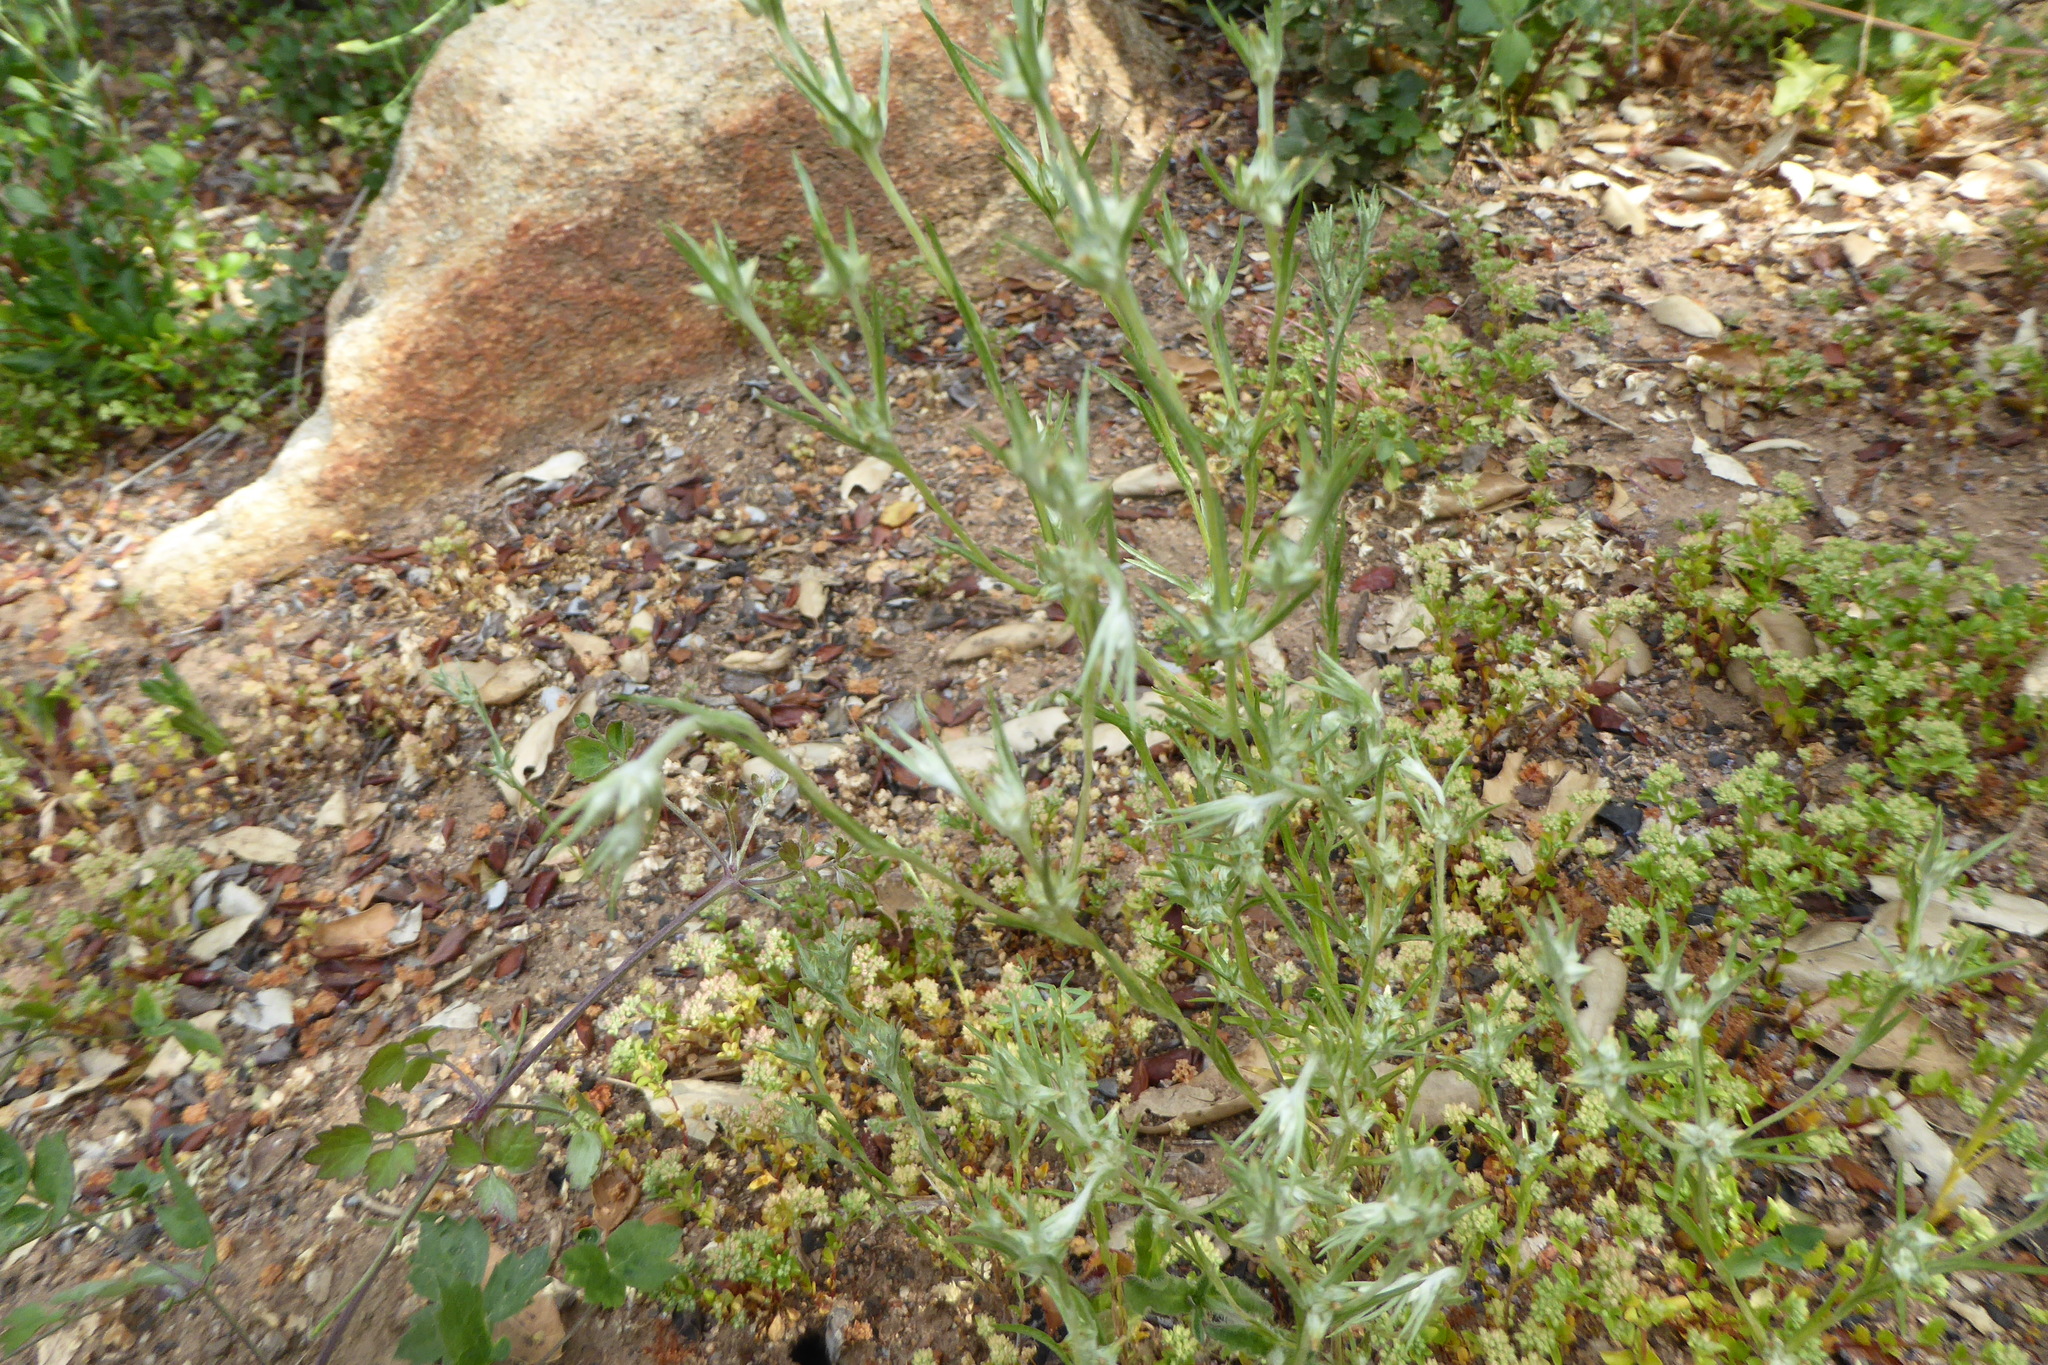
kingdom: Plantae
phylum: Tracheophyta
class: Magnoliopsida
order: Asterales
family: Asteraceae
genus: Logfia
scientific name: Logfia gallica
